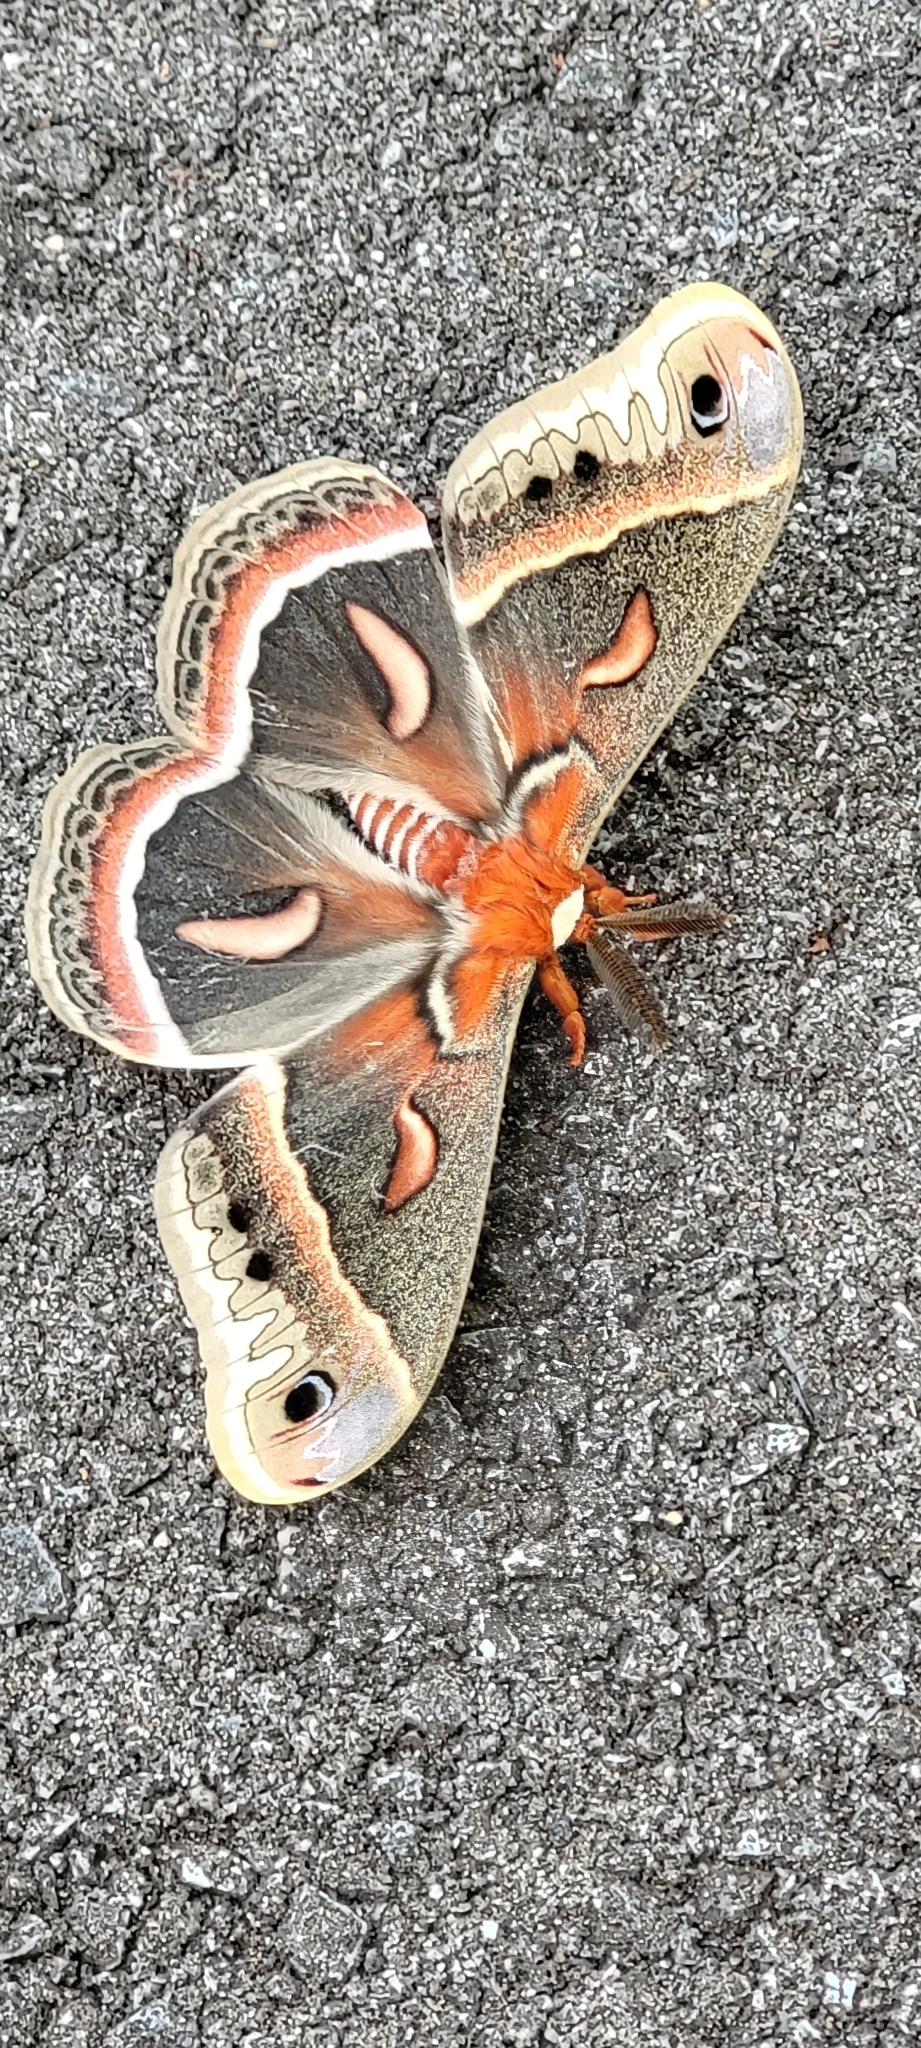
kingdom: Animalia
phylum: Arthropoda
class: Insecta
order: Lepidoptera
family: Saturniidae
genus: Hyalophora
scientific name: Hyalophora cecropia
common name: Cecropia silkmoth
